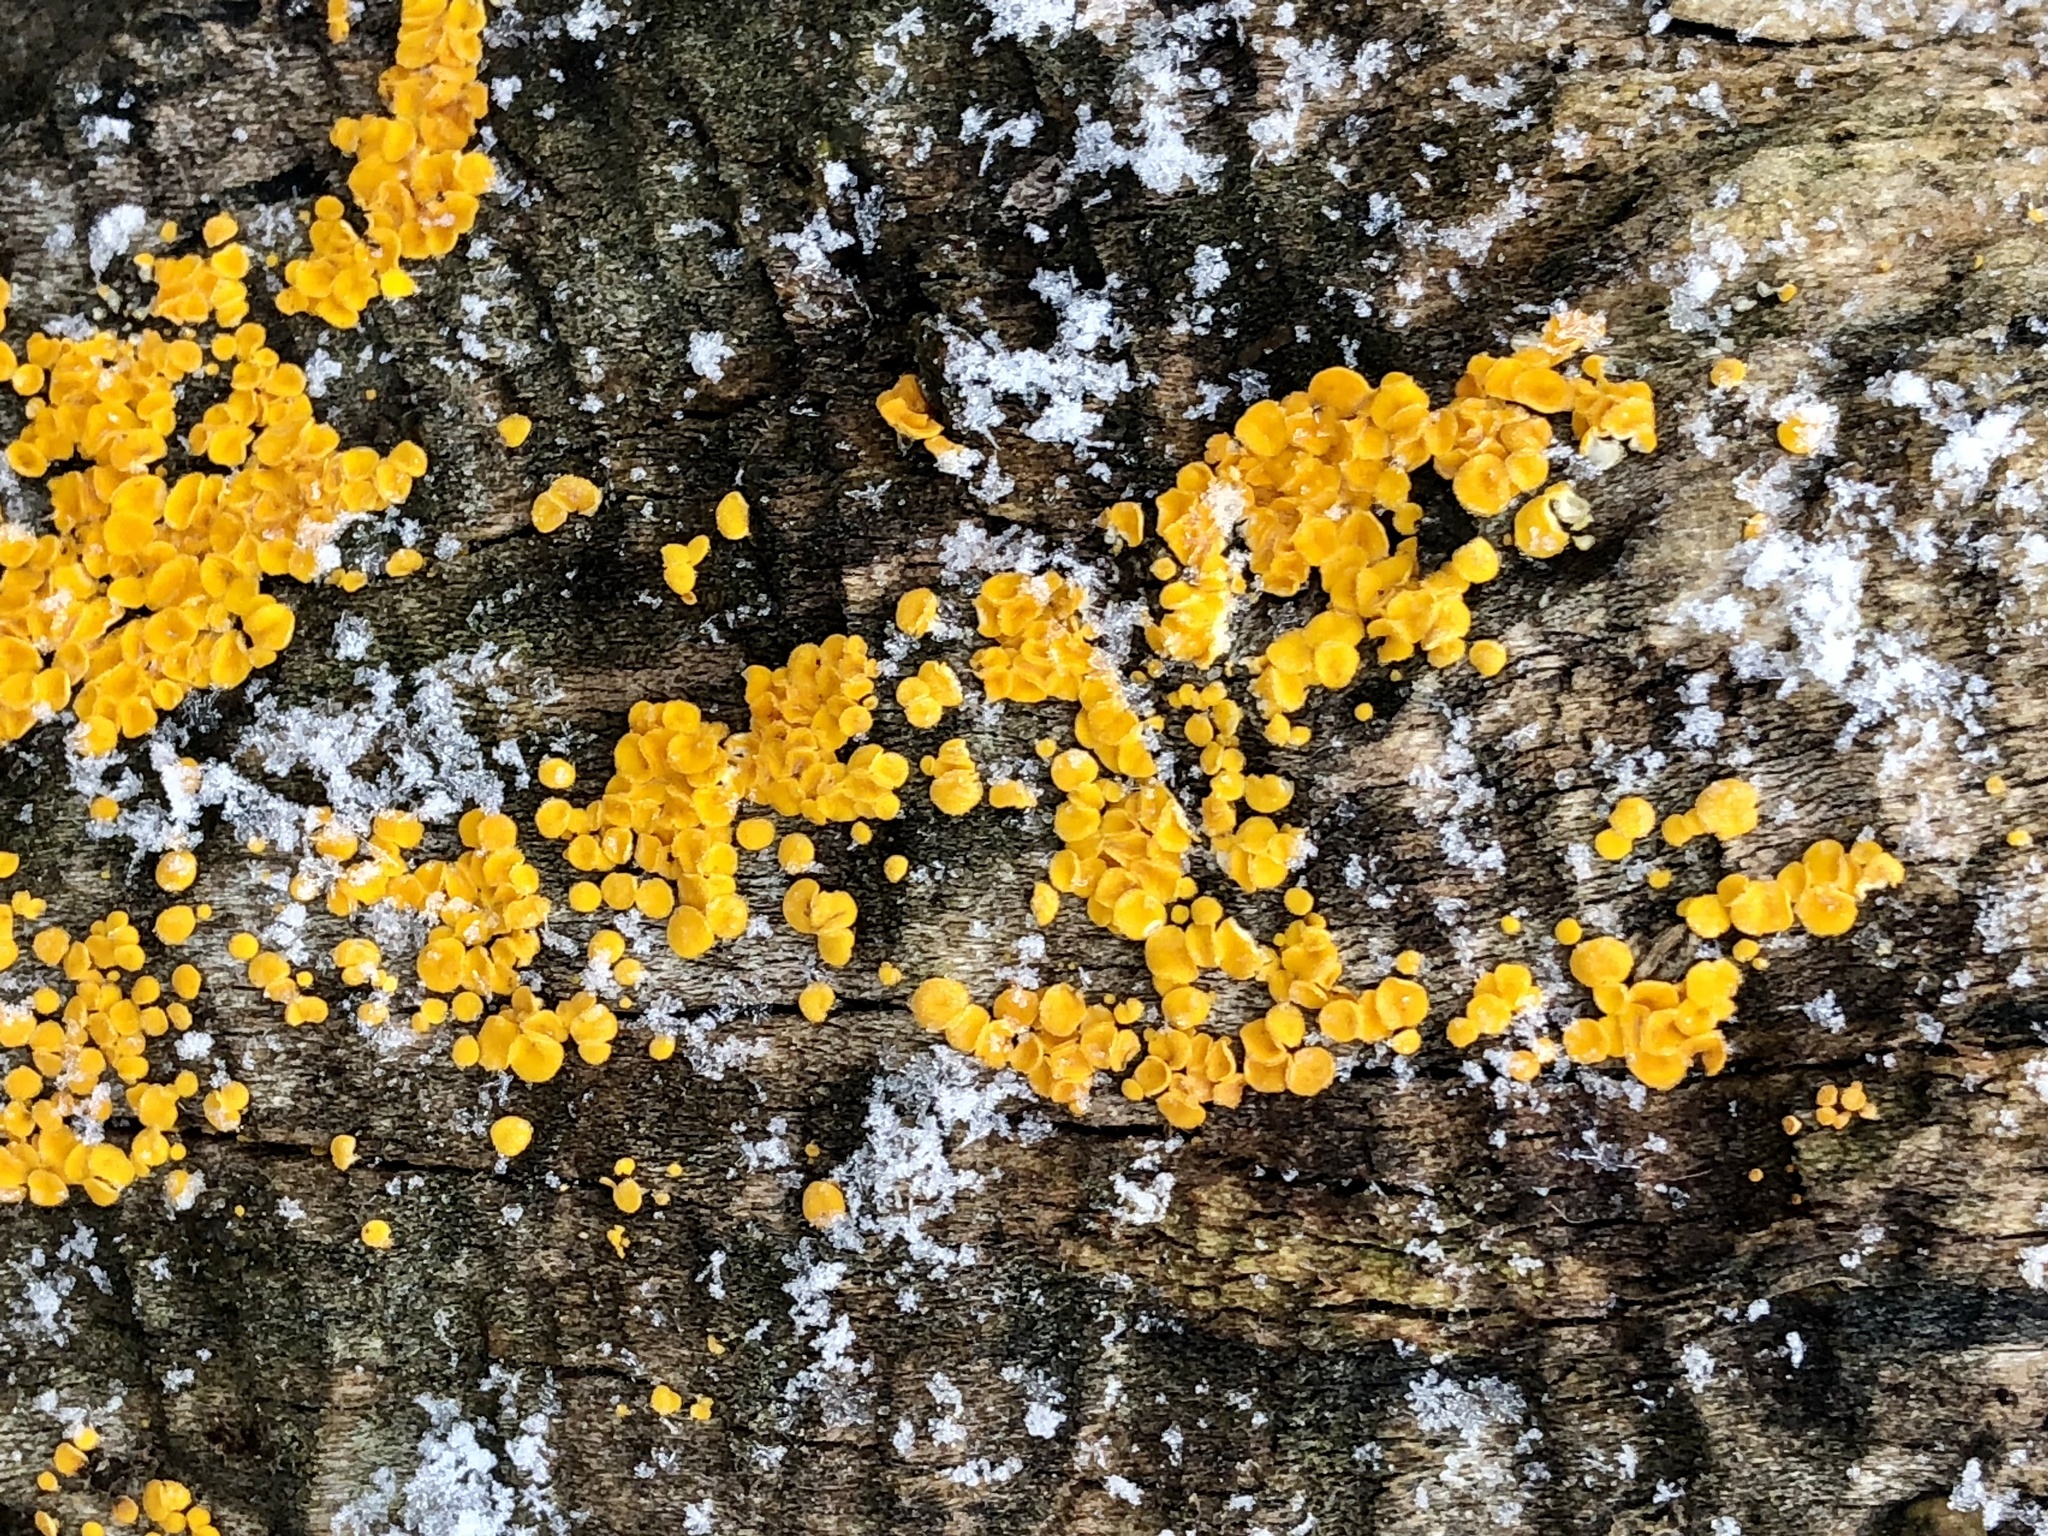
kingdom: Fungi
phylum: Ascomycota
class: Leotiomycetes
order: Helotiales
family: Pezizellaceae
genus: Calycina
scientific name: Calycina citrina
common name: Yellow fairy cups
